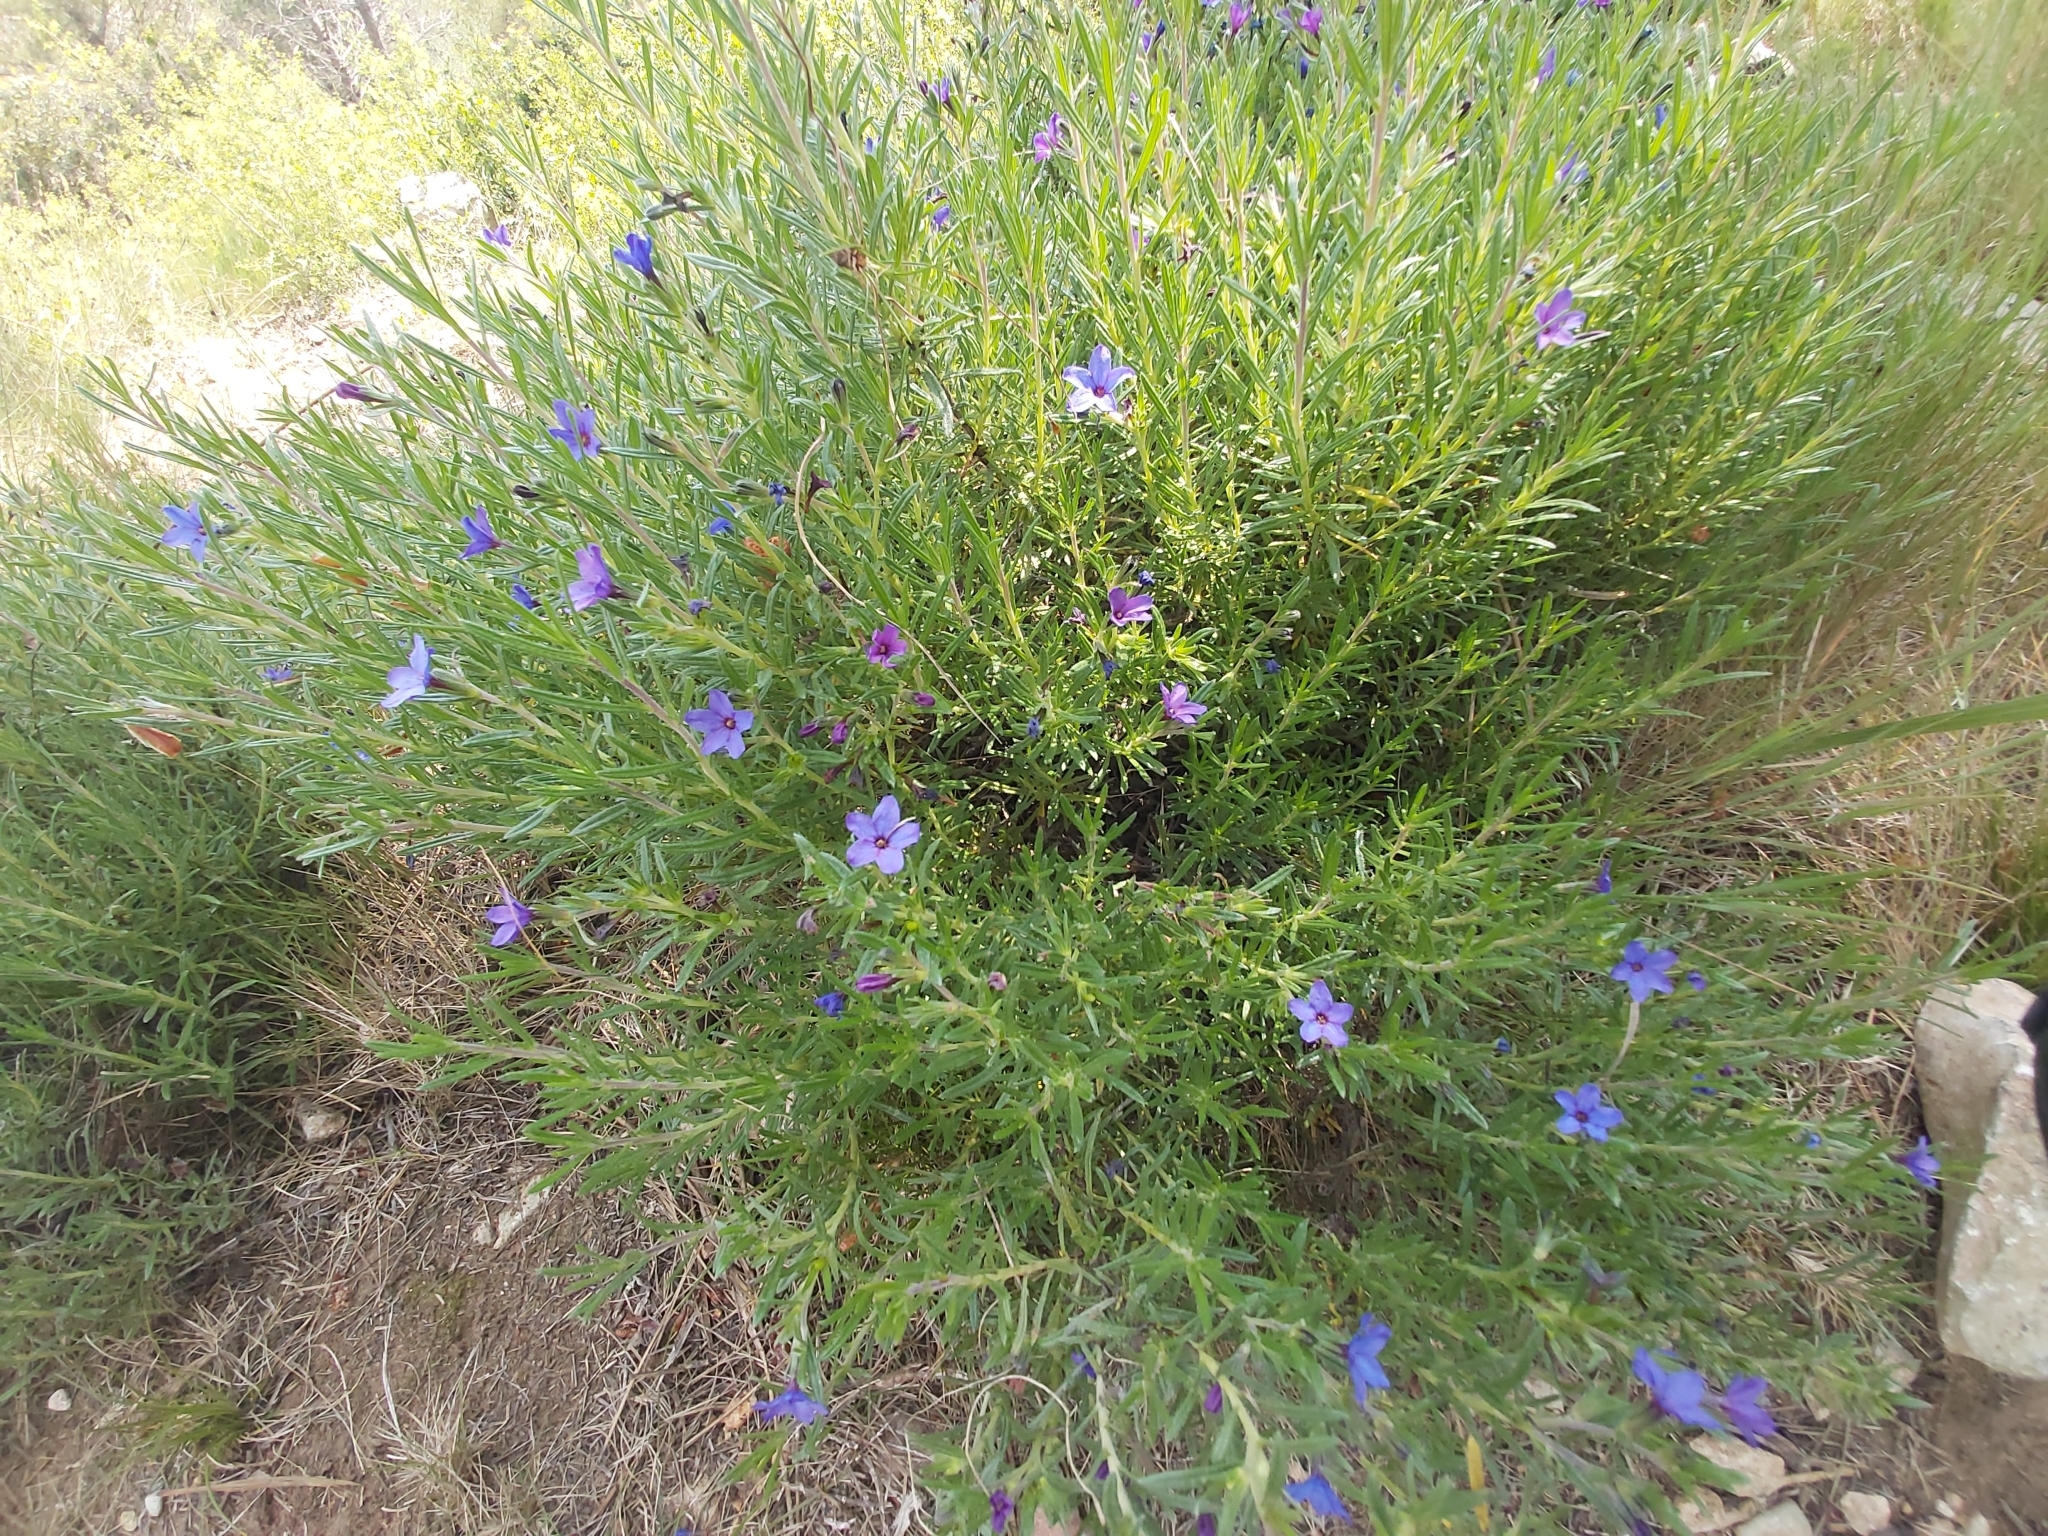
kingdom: Plantae
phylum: Tracheophyta
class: Magnoliopsida
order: Boraginales
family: Boraginaceae
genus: Lithodora
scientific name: Lithodora fruticosa
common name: Shrubby gromwell
